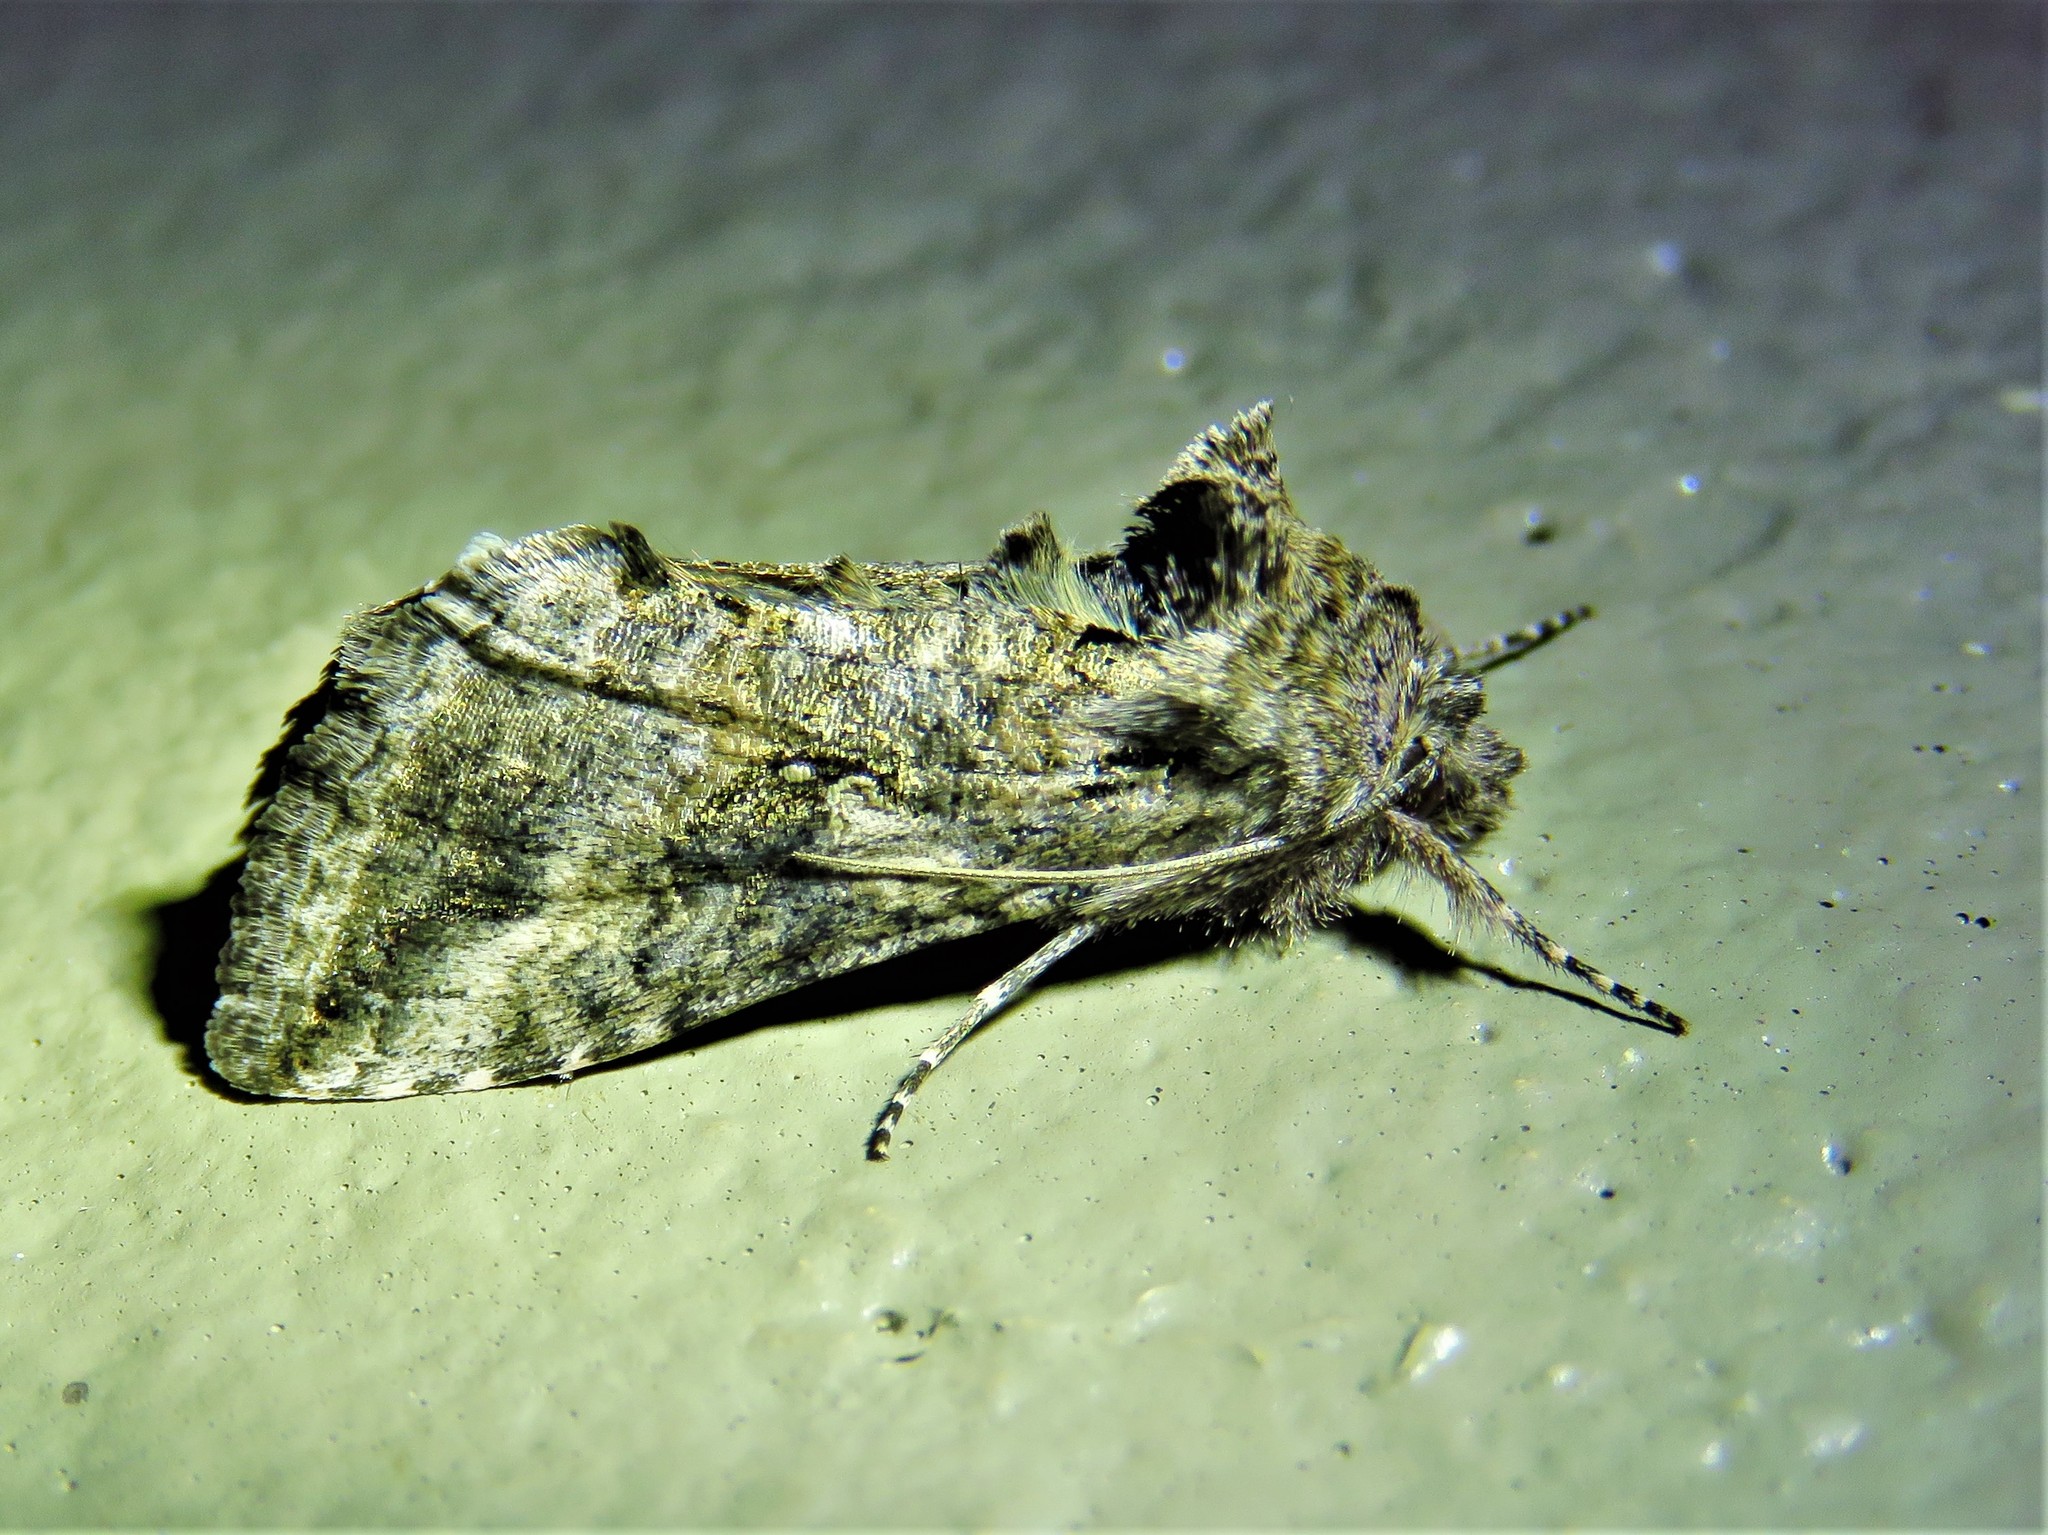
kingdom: Animalia
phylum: Arthropoda
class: Insecta
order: Lepidoptera
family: Noctuidae
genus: Rachiplusia
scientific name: Rachiplusia ou
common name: Gray looper moth
